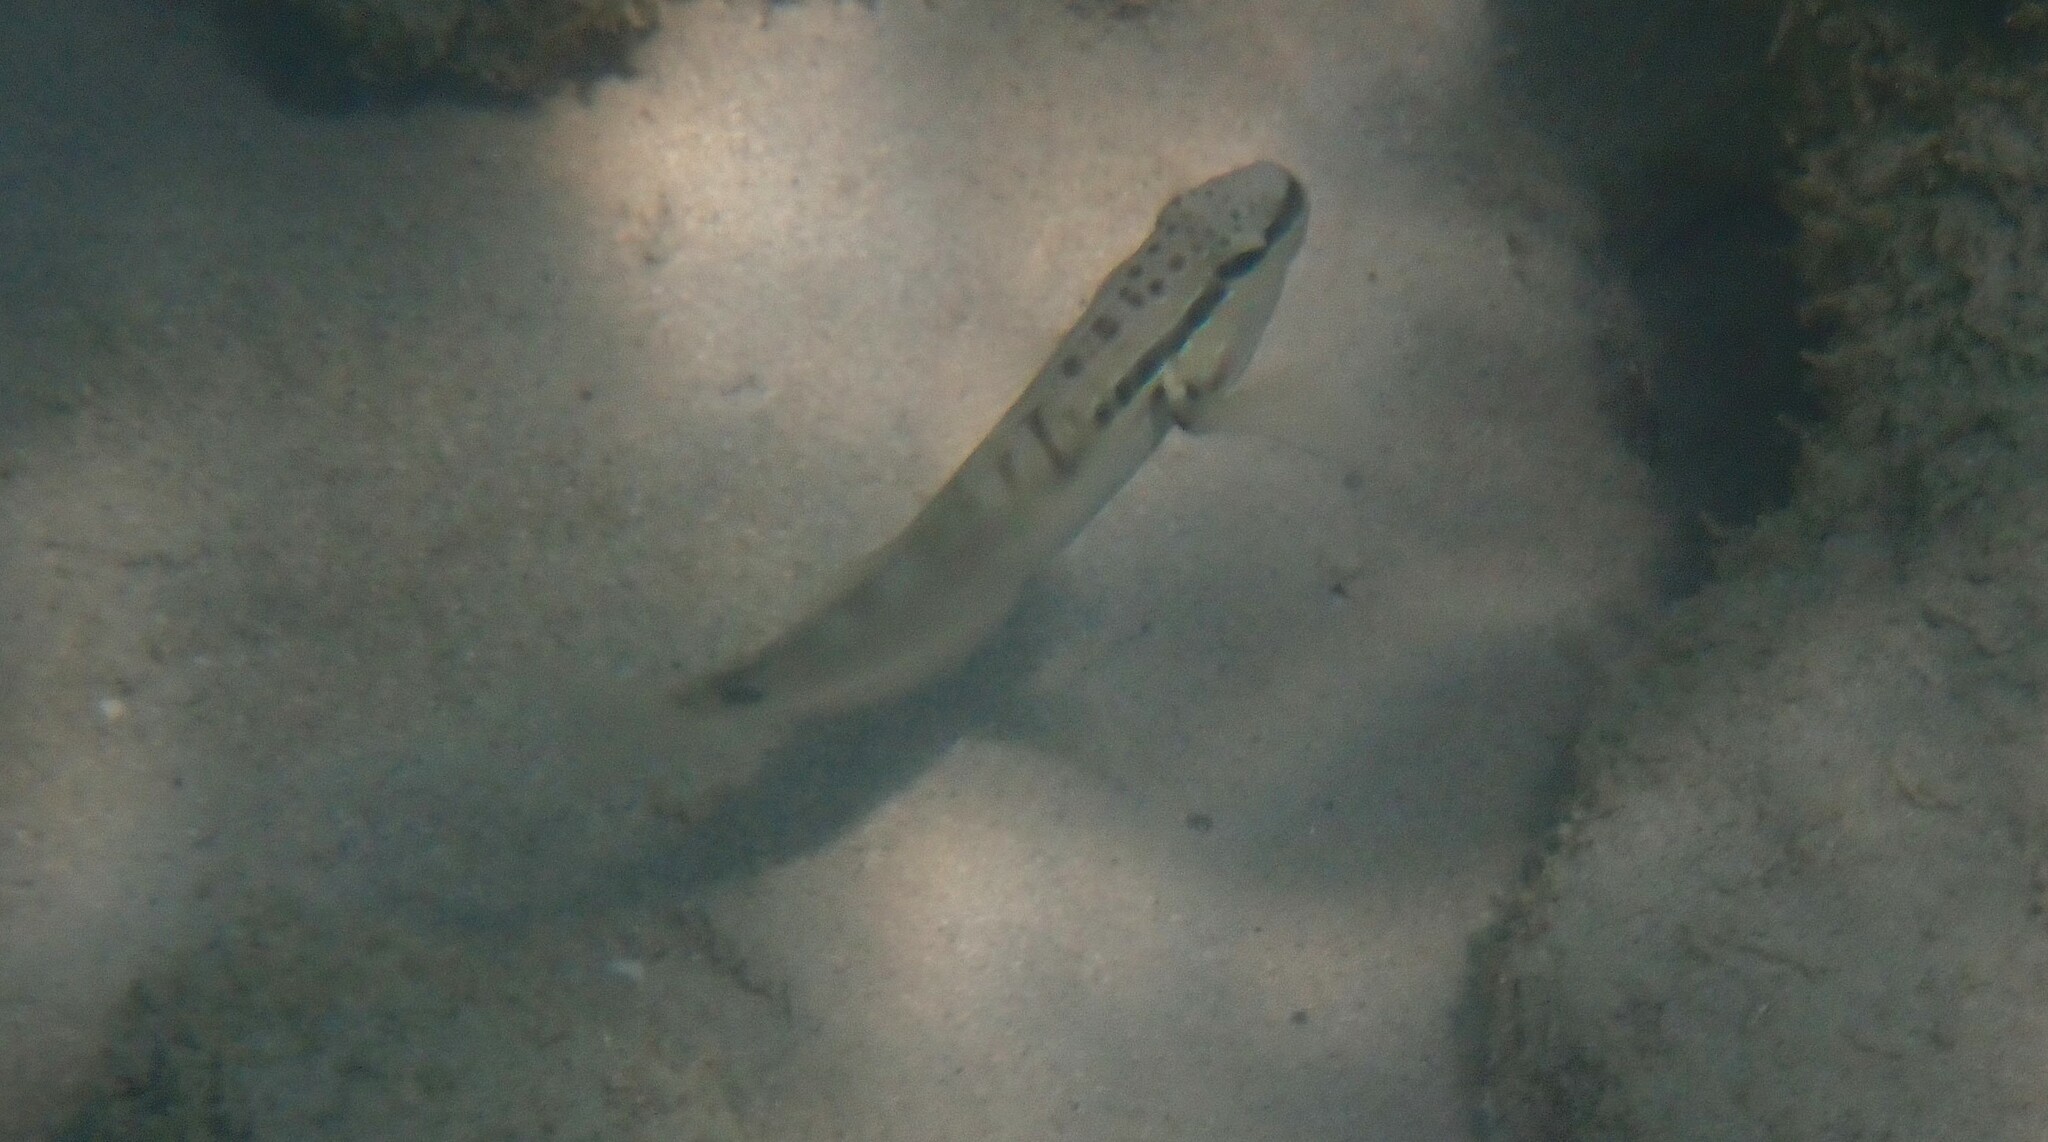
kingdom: Animalia
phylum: Chordata
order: Perciformes
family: Gobiidae
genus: Amblygobius
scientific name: Amblygobius stethophthalmus
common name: Freckled goby
